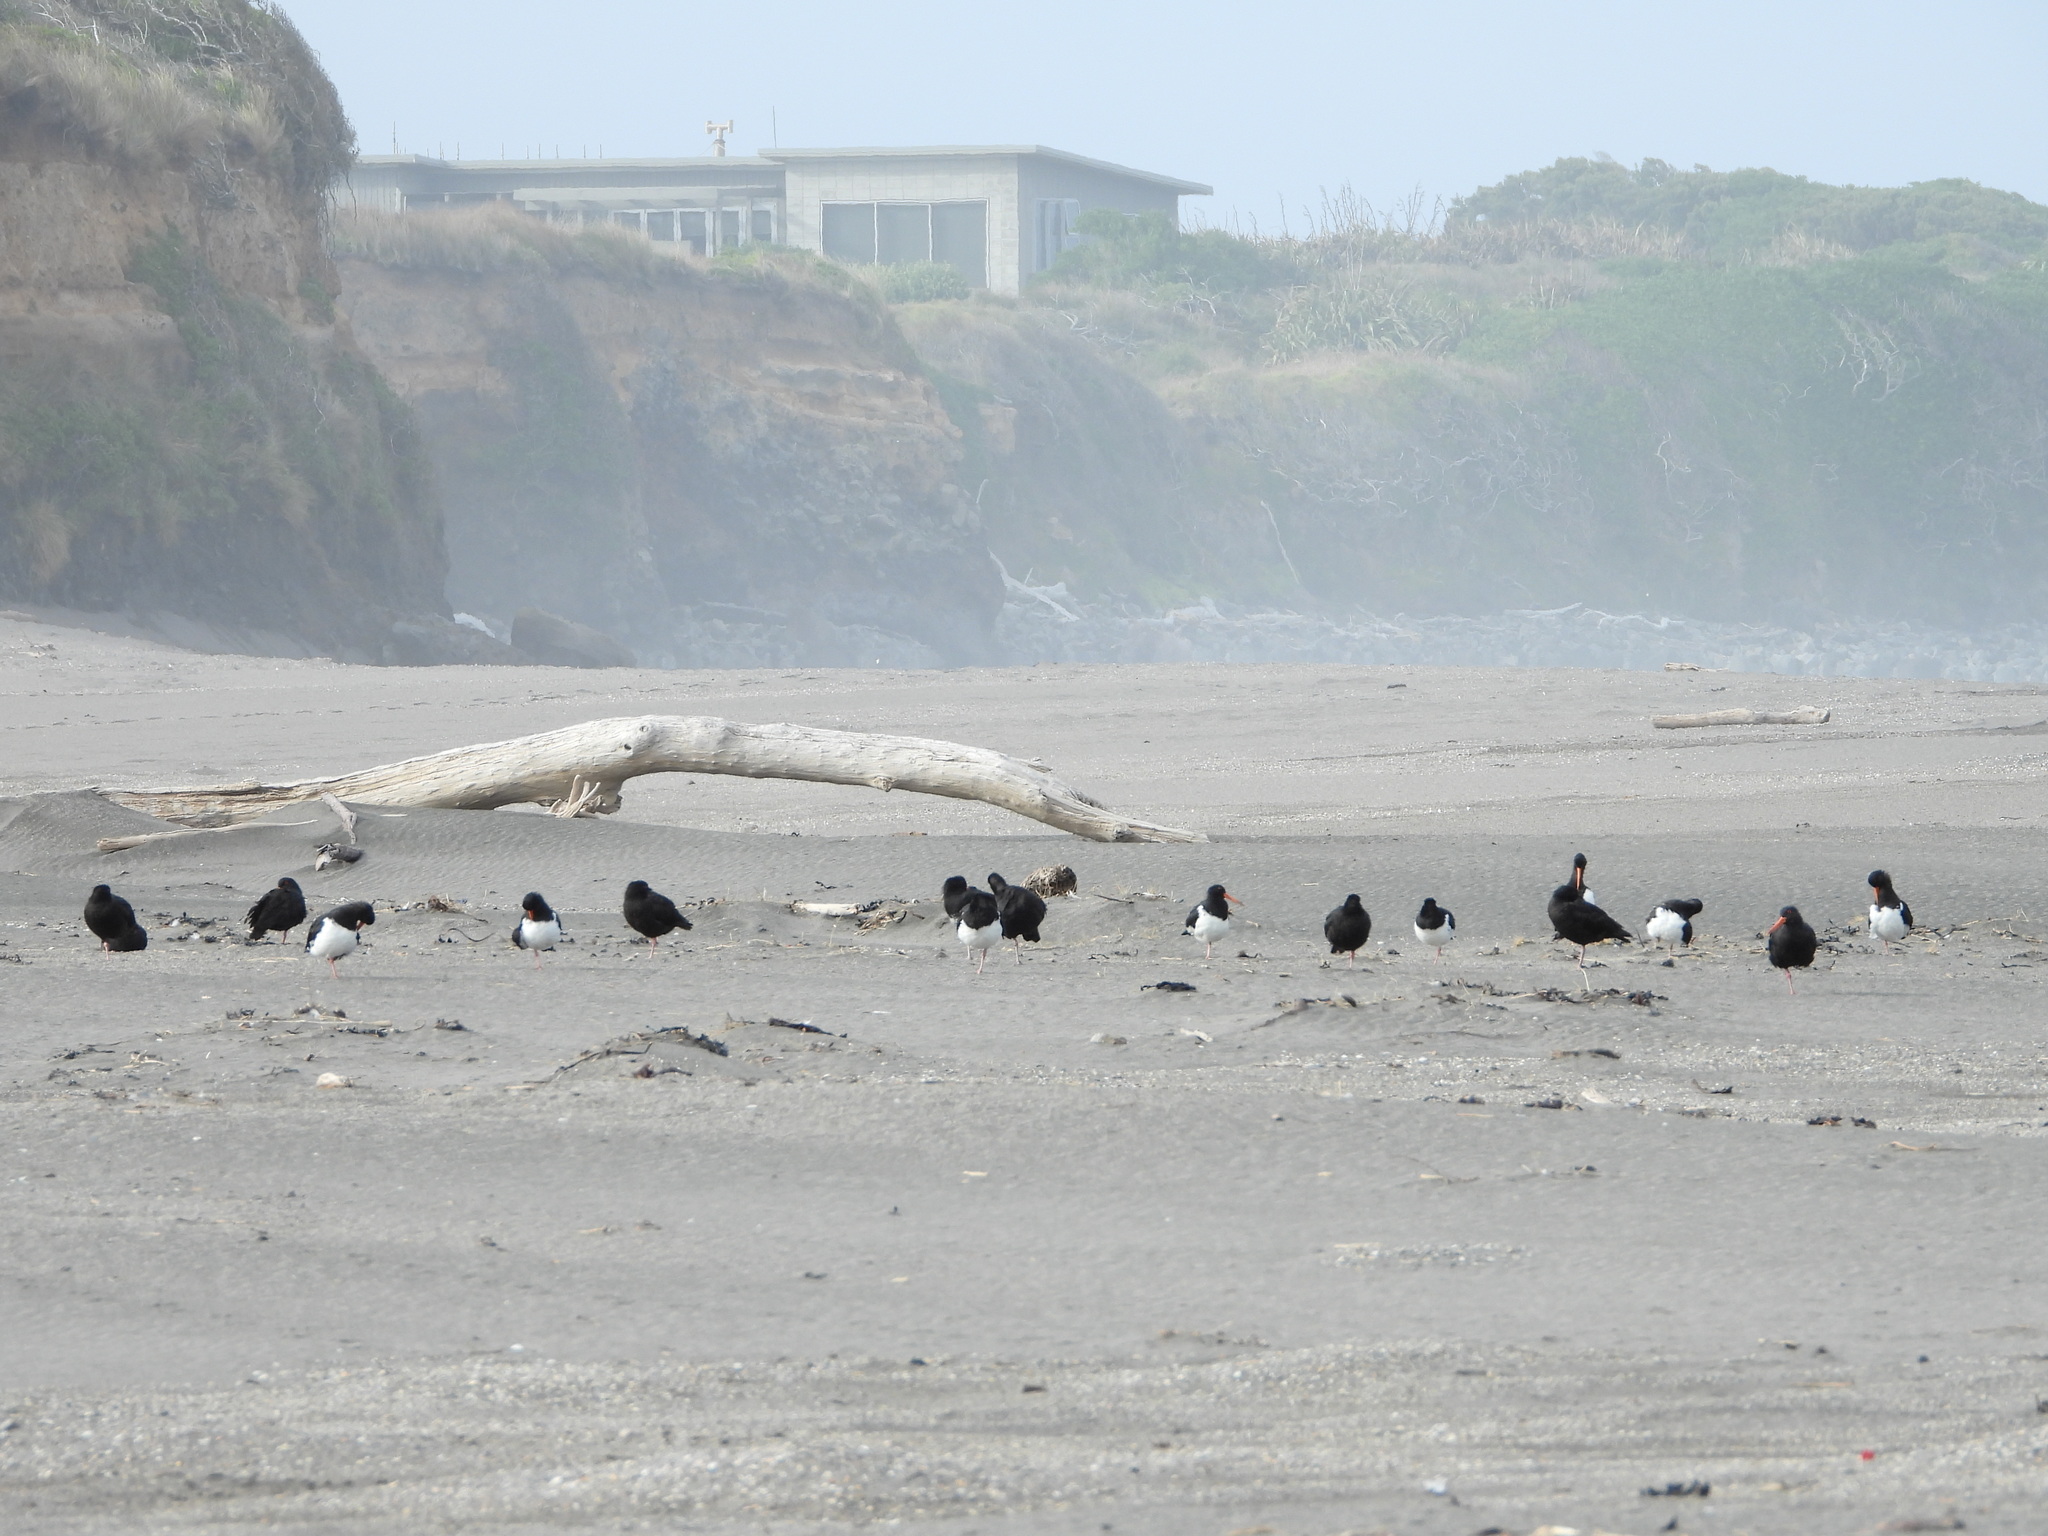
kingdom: Animalia
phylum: Chordata
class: Aves
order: Charadriiformes
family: Haematopodidae
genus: Haematopus
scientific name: Haematopus unicolor
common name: Variable oystercatcher
